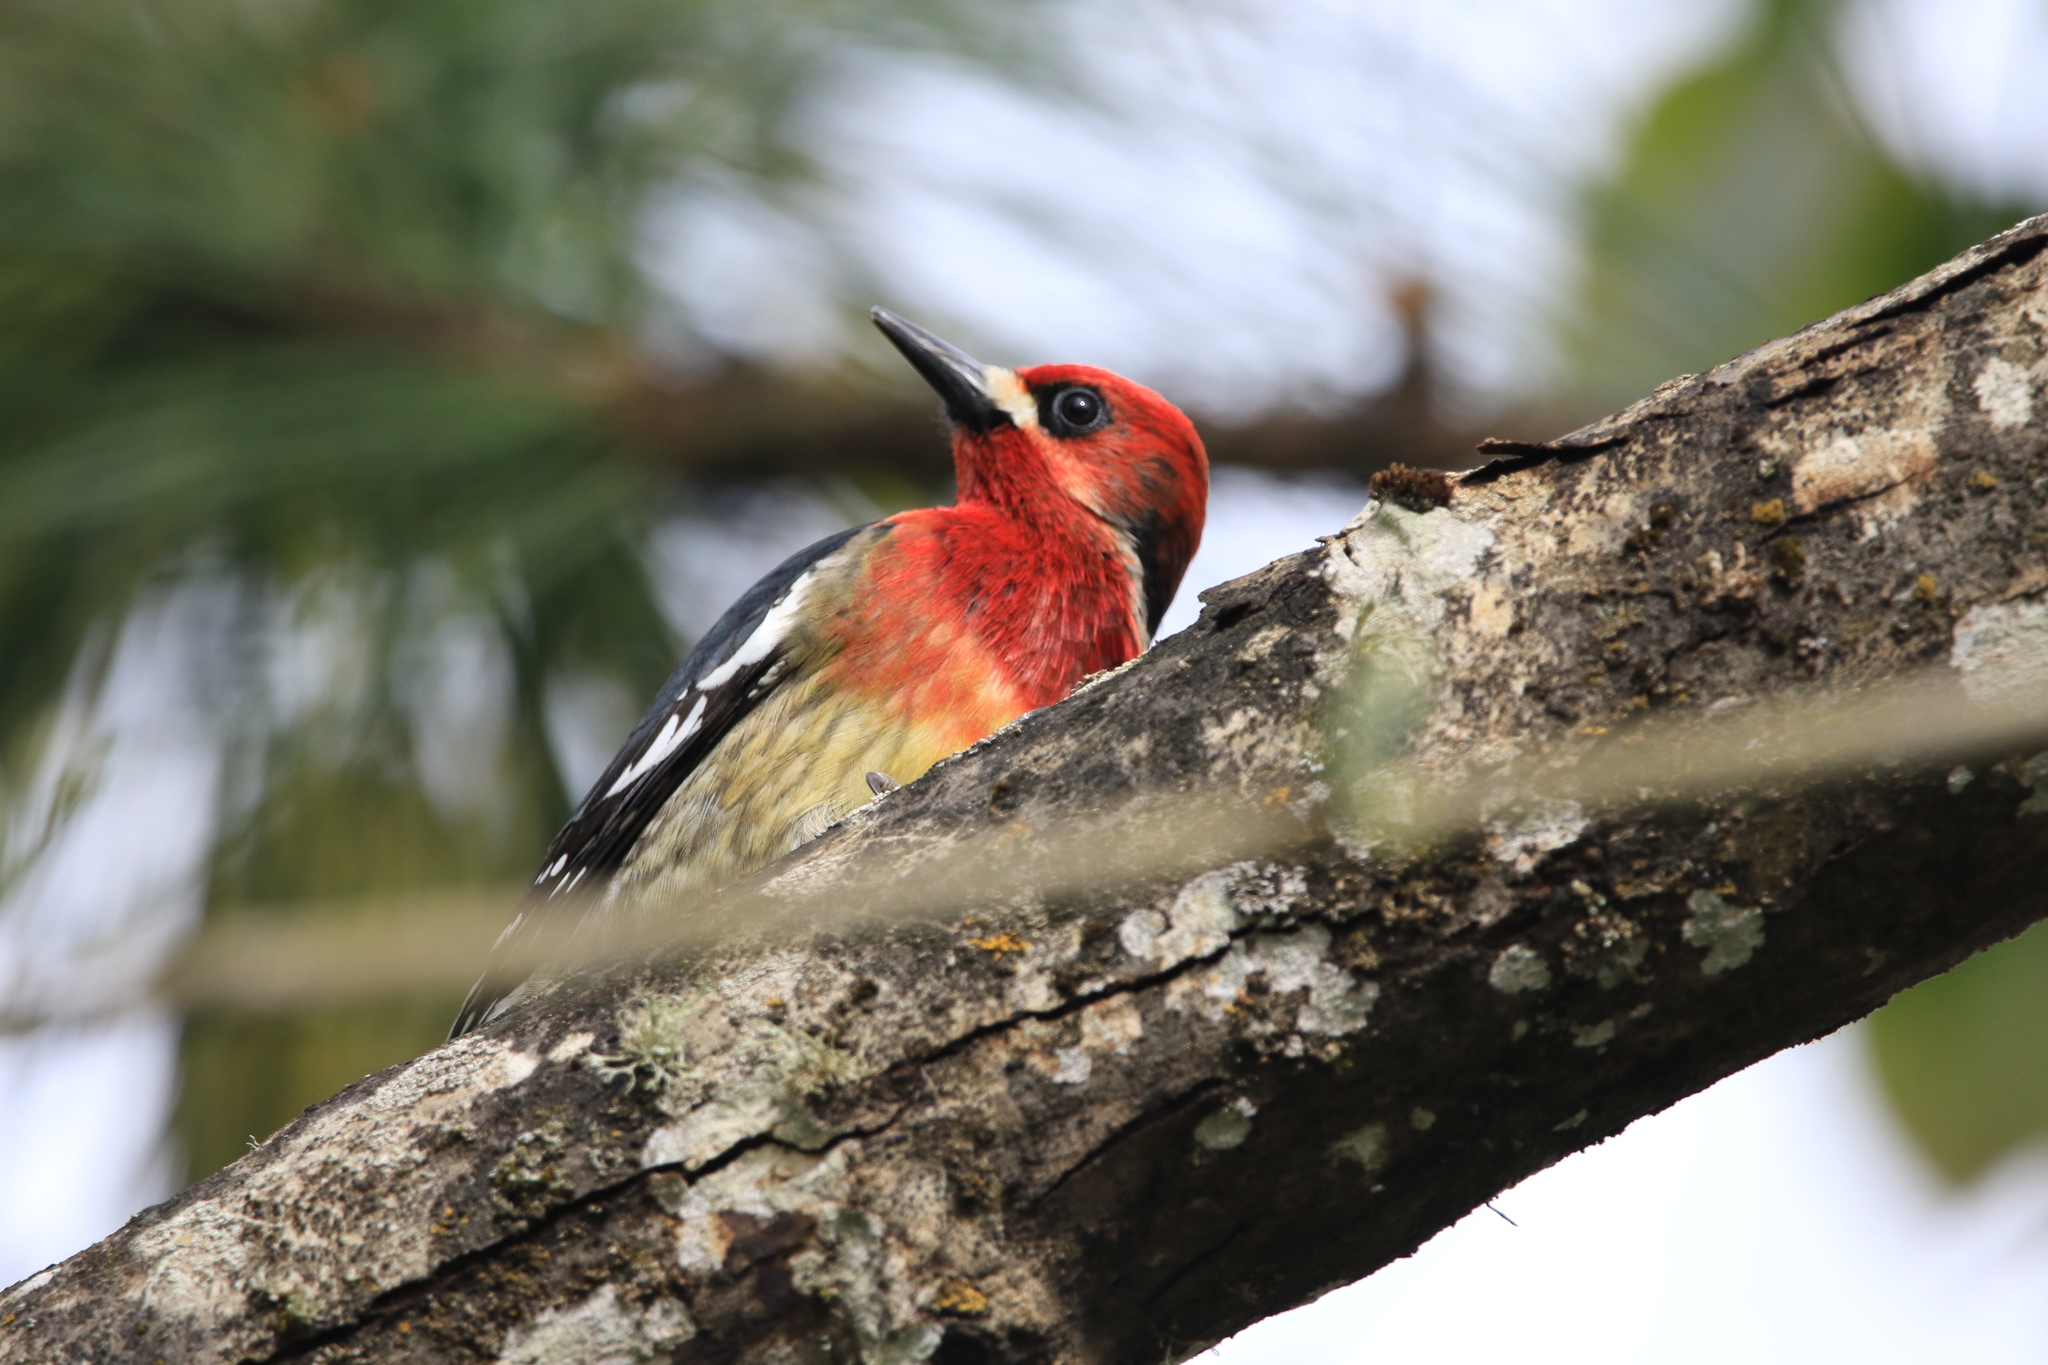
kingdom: Animalia
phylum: Chordata
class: Aves
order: Piciformes
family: Picidae
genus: Sphyrapicus
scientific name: Sphyrapicus ruber
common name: Red-breasted sapsucker
